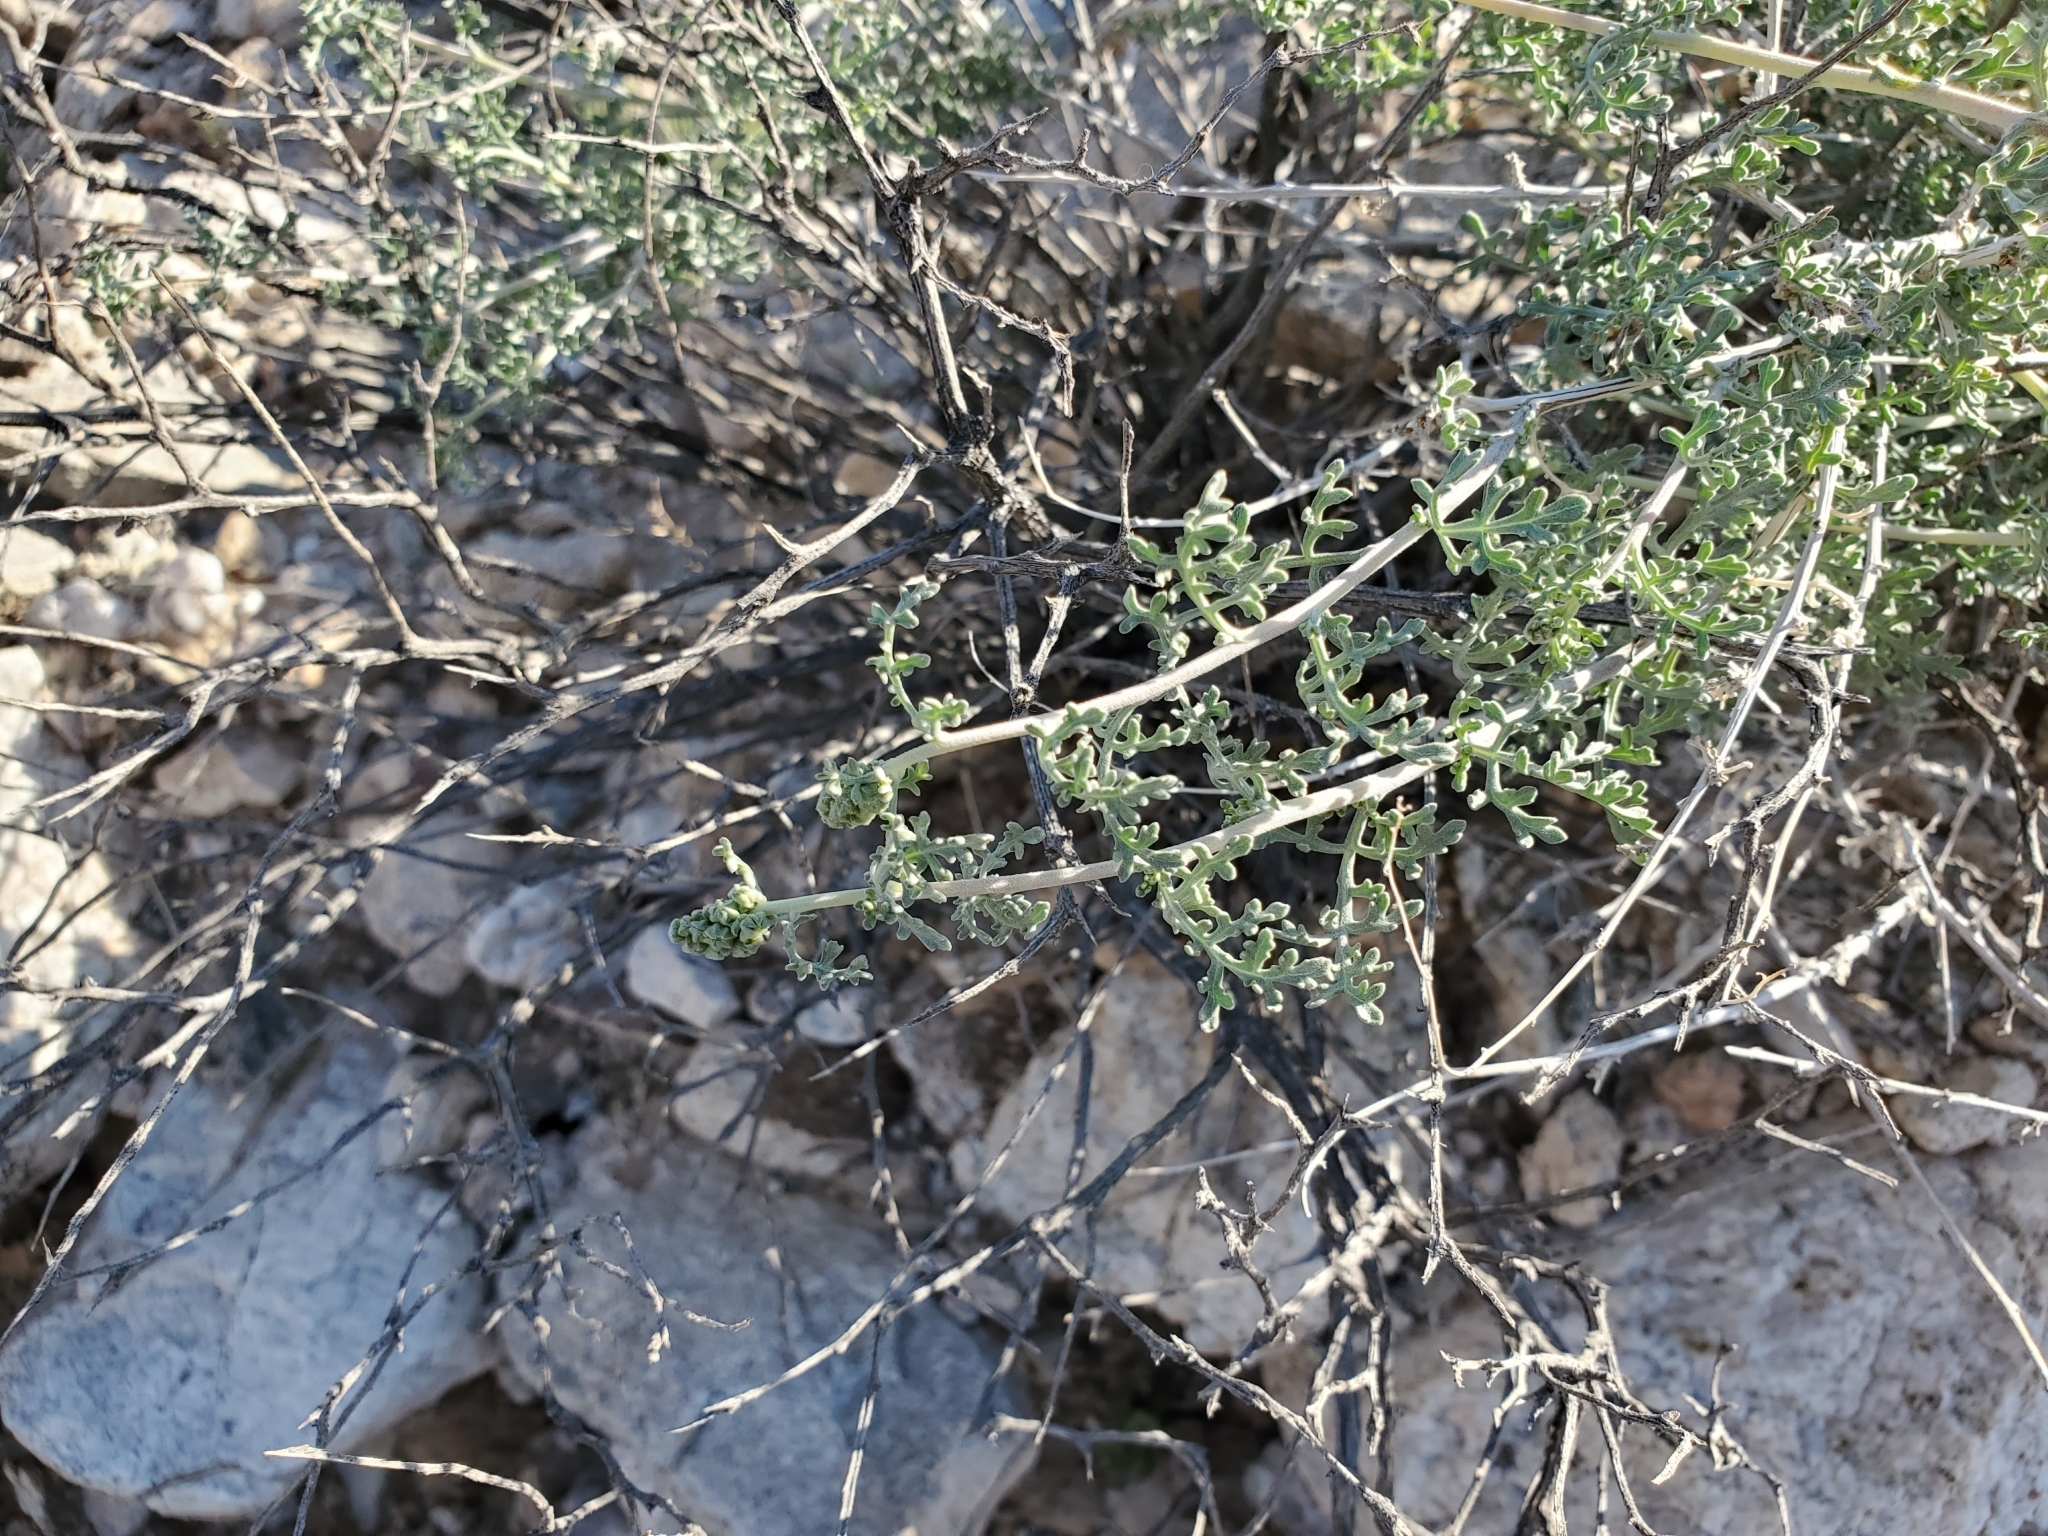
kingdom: Plantae
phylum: Tracheophyta
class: Magnoliopsida
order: Asterales
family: Asteraceae
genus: Ambrosia
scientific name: Ambrosia dumosa
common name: Bur-sage
